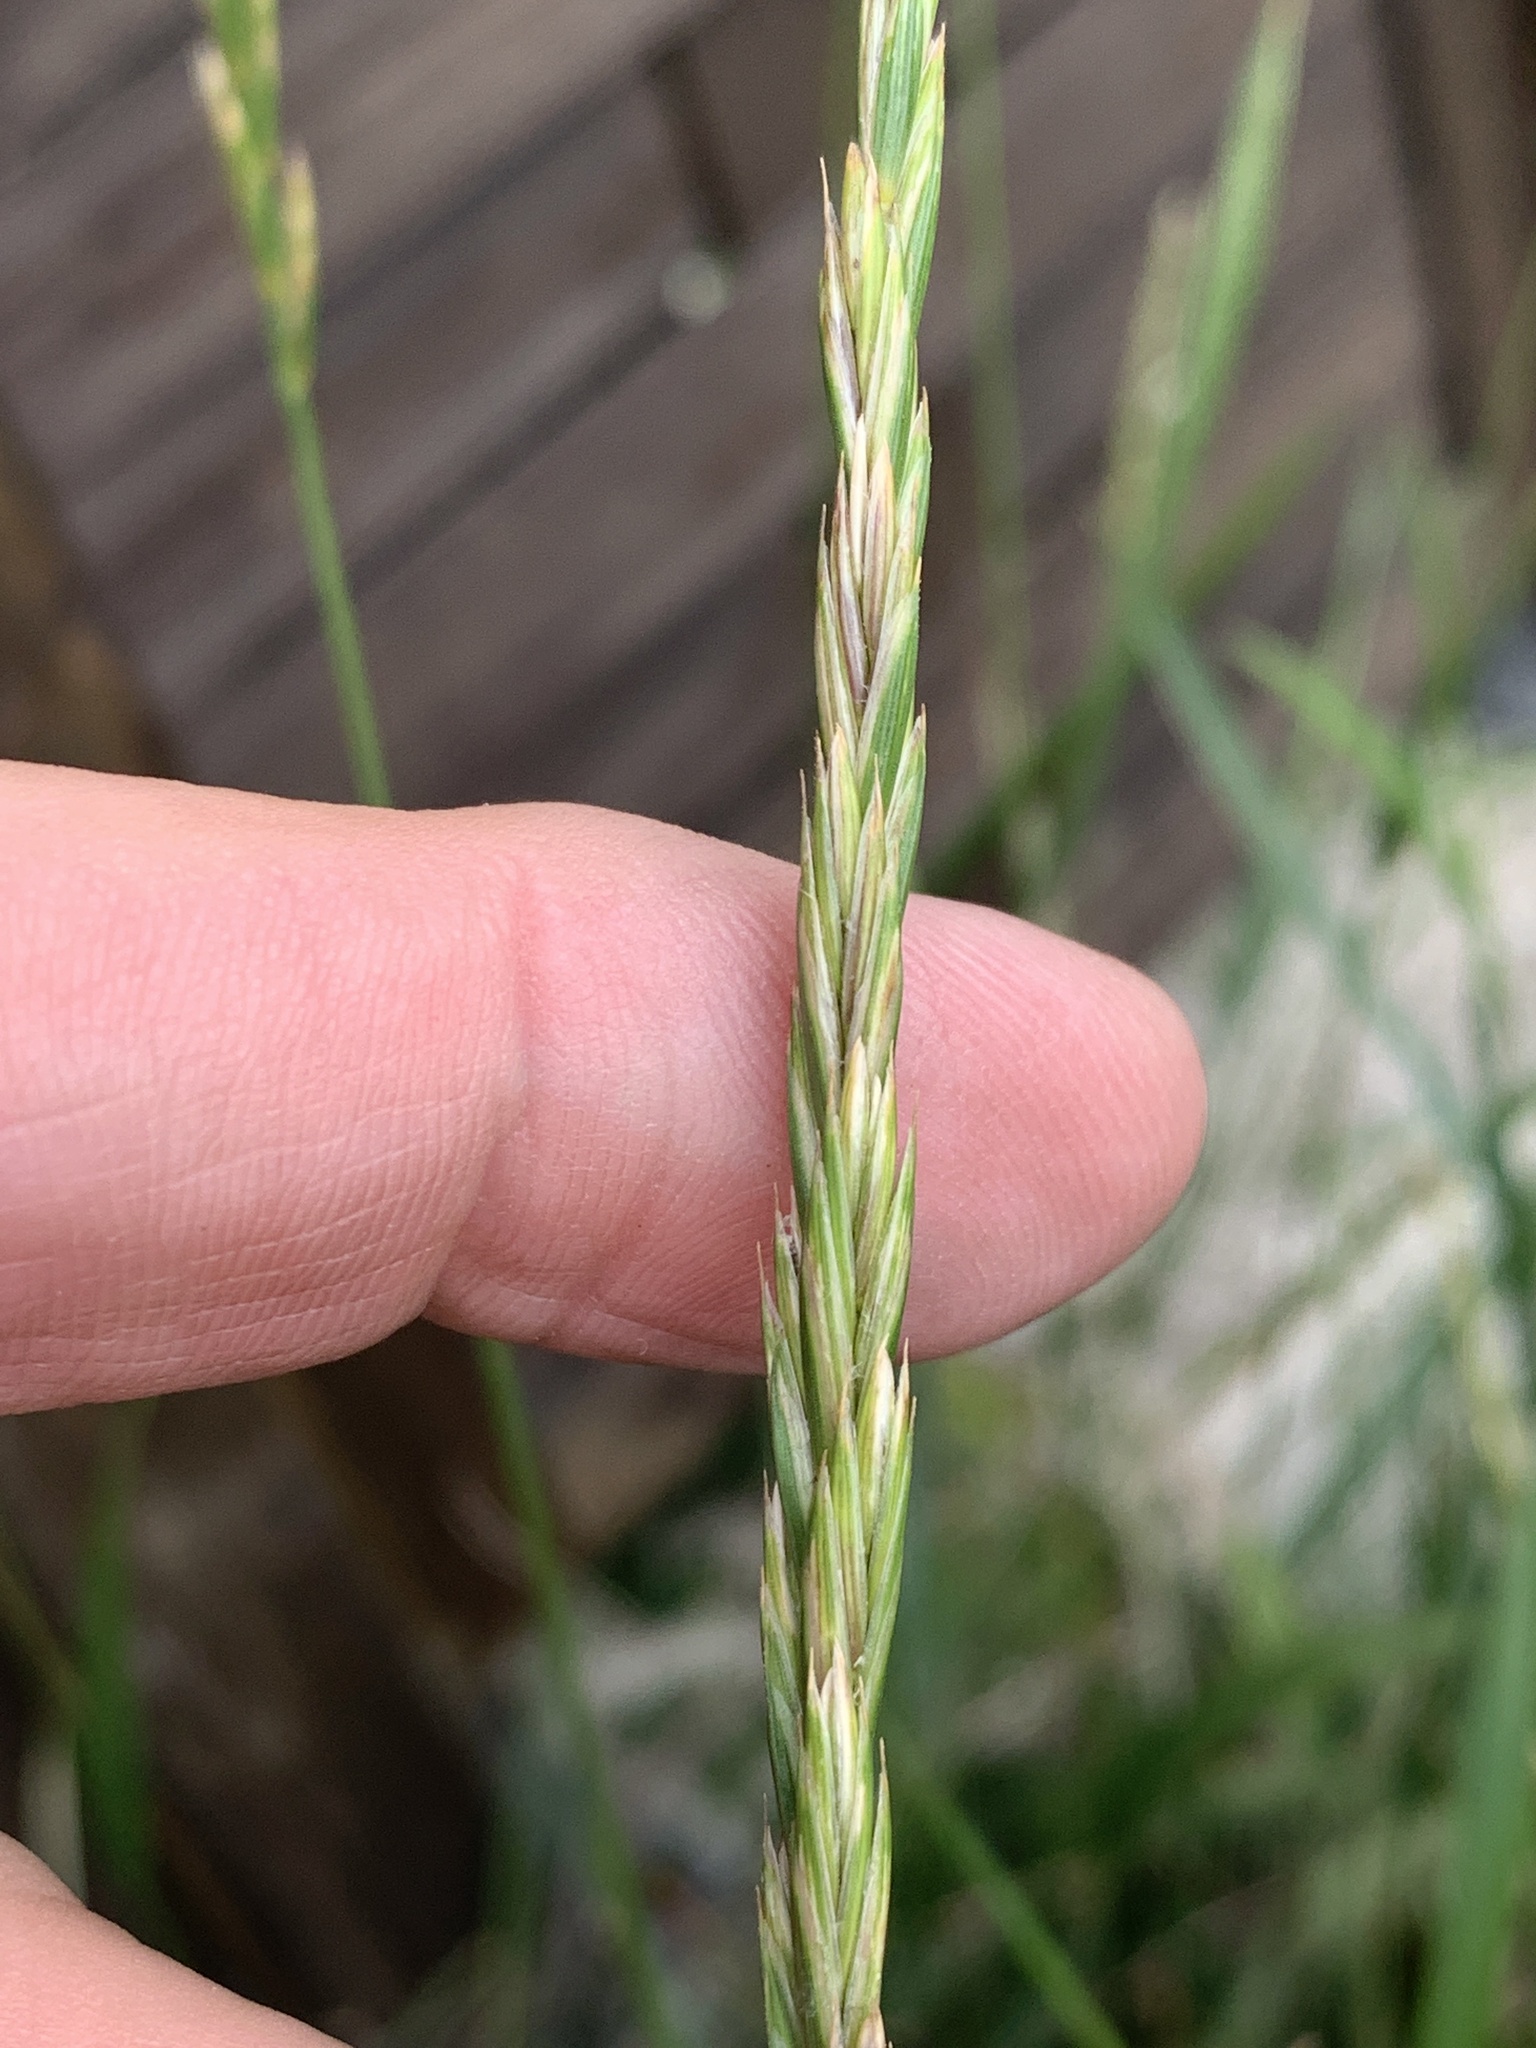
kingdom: Plantae
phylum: Tracheophyta
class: Liliopsida
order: Poales
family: Poaceae
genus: Elymus
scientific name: Elymus repens
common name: Quackgrass
